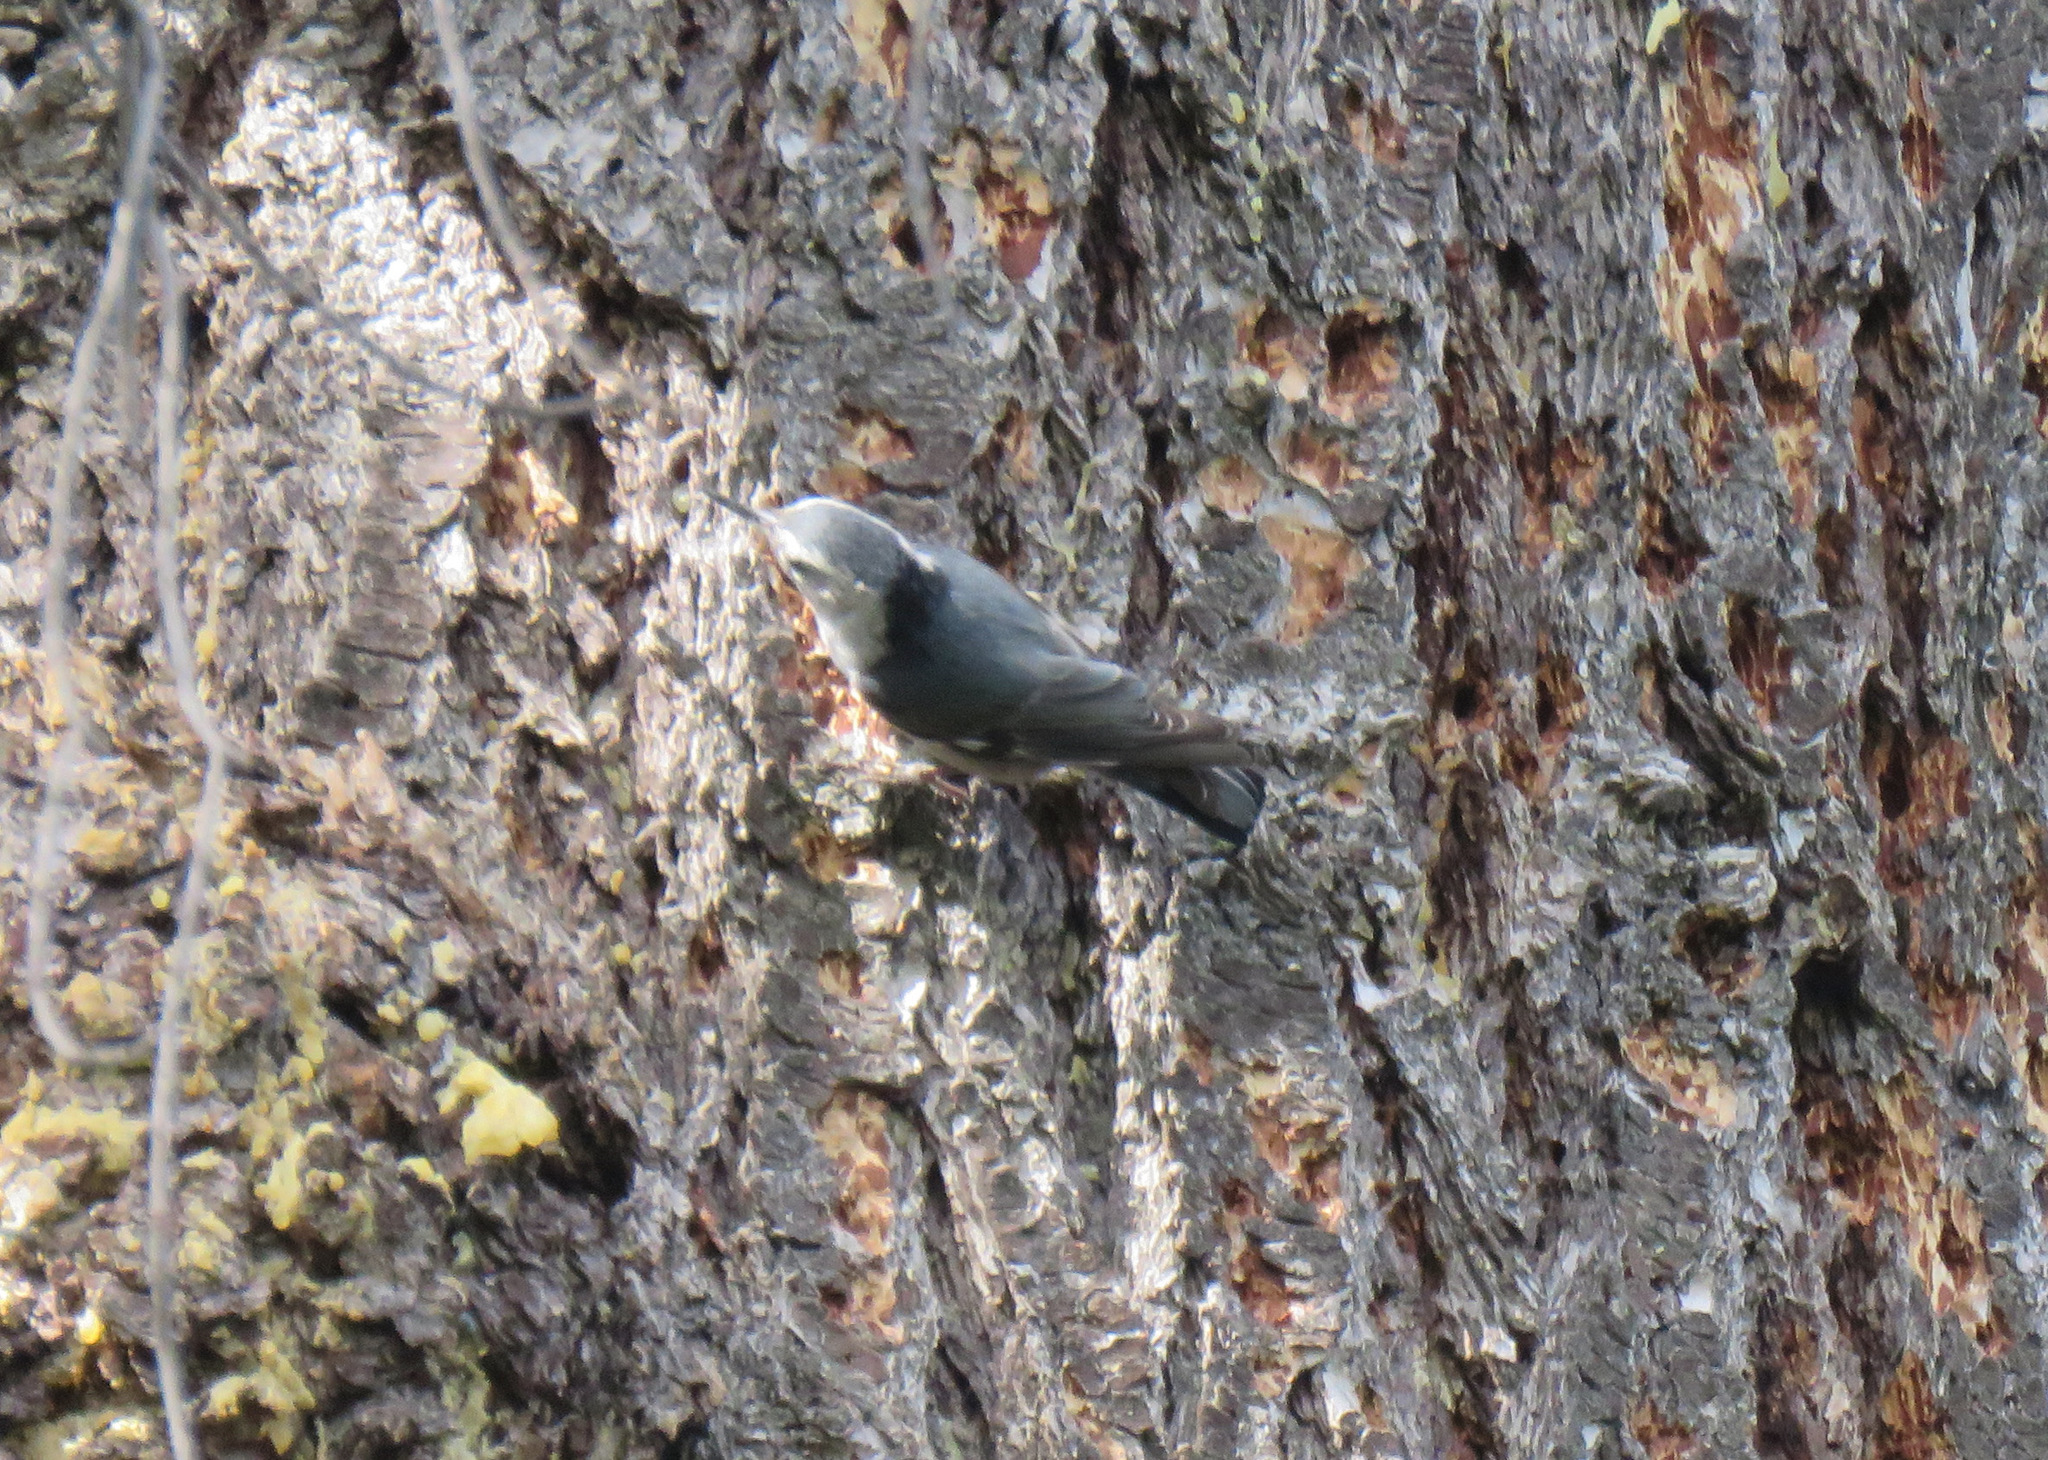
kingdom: Animalia
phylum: Chordata
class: Aves
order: Passeriformes
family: Sittidae
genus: Sitta
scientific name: Sitta carolinensis
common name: White-breasted nuthatch
